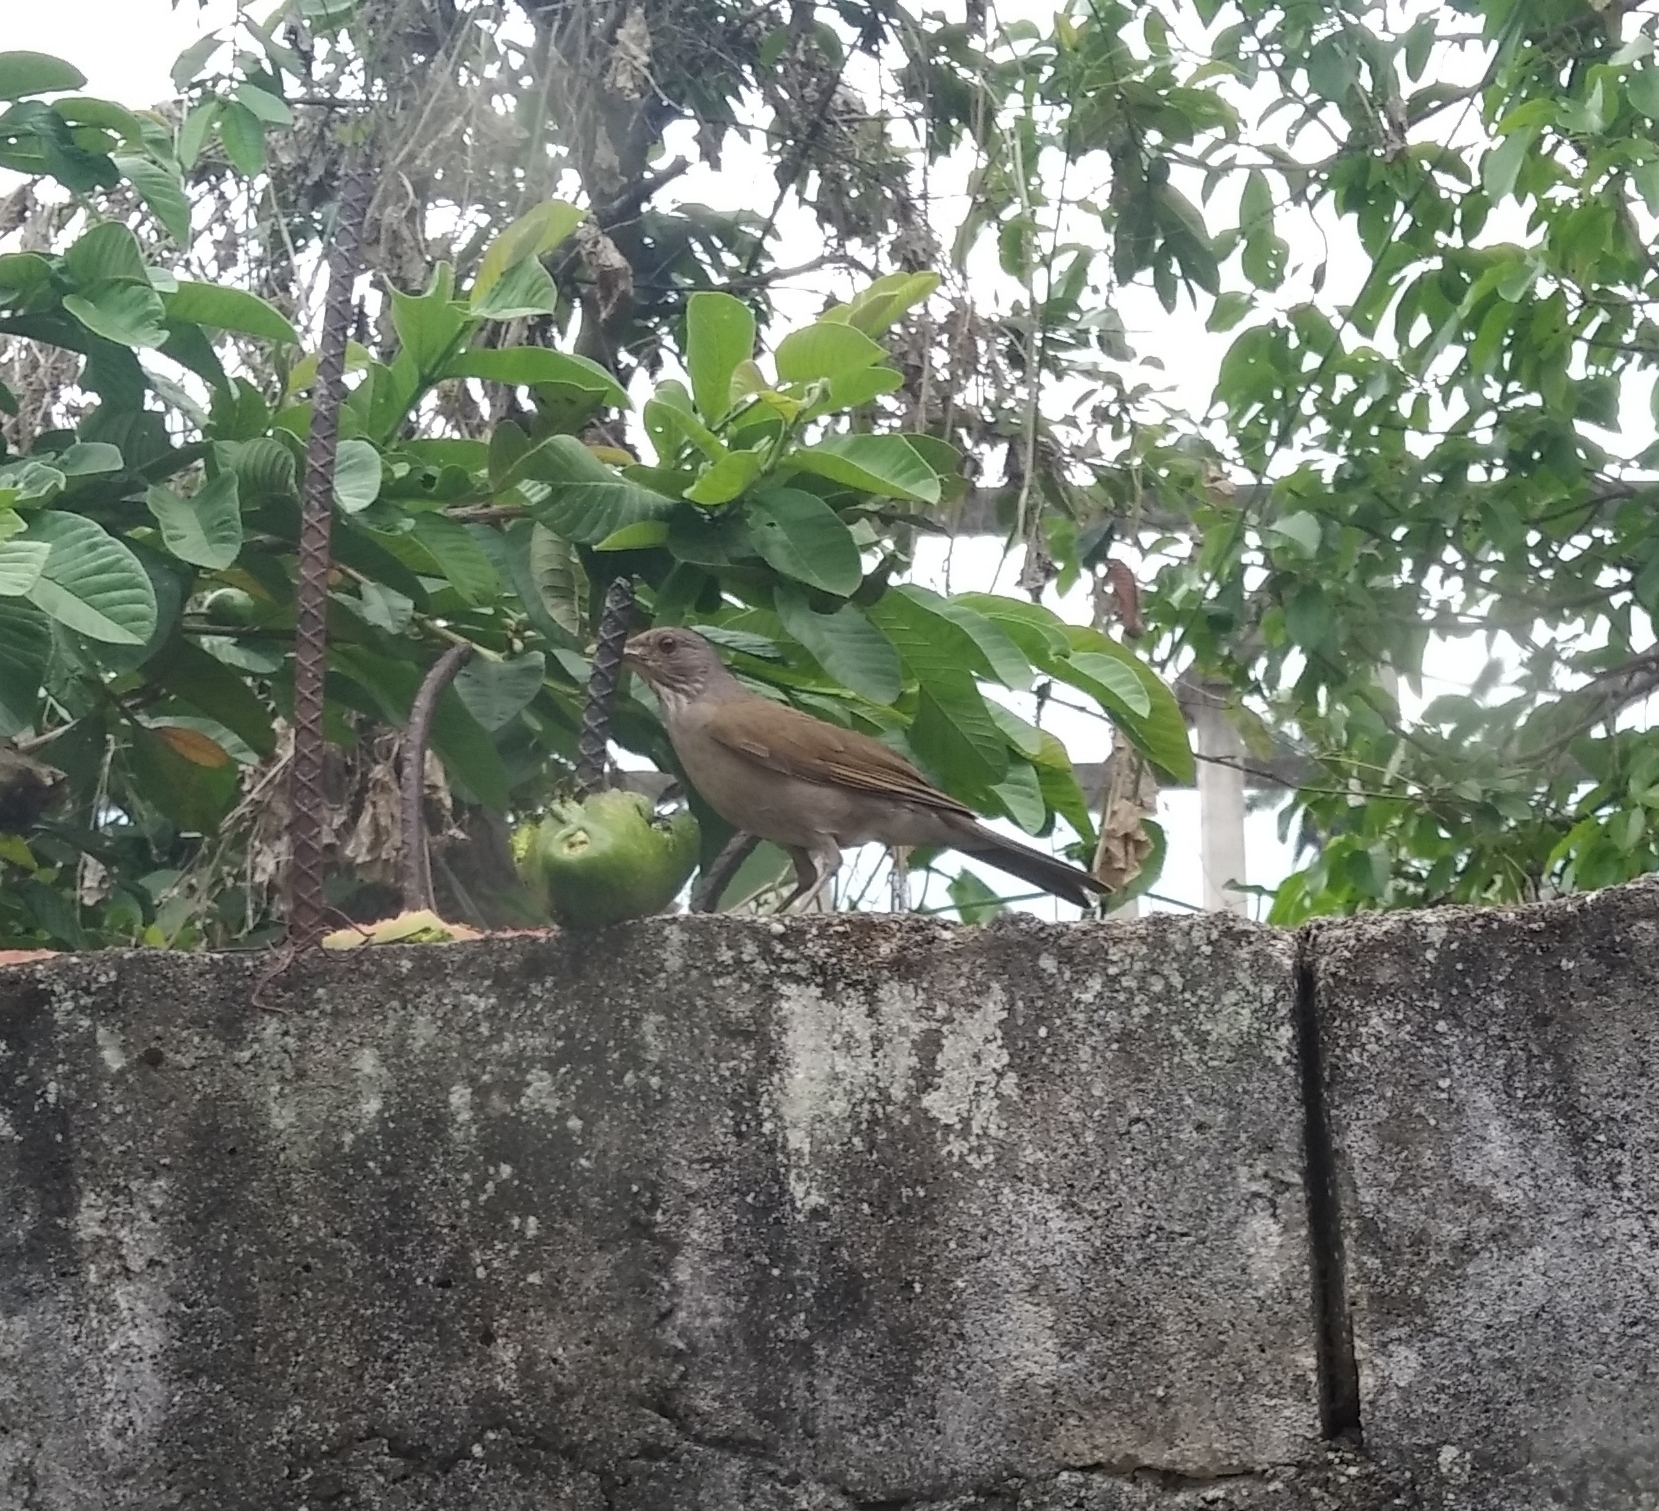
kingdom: Animalia
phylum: Chordata
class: Aves
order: Passeriformes
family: Turdidae
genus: Turdus
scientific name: Turdus leucomelas
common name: Pale-breasted thrush
